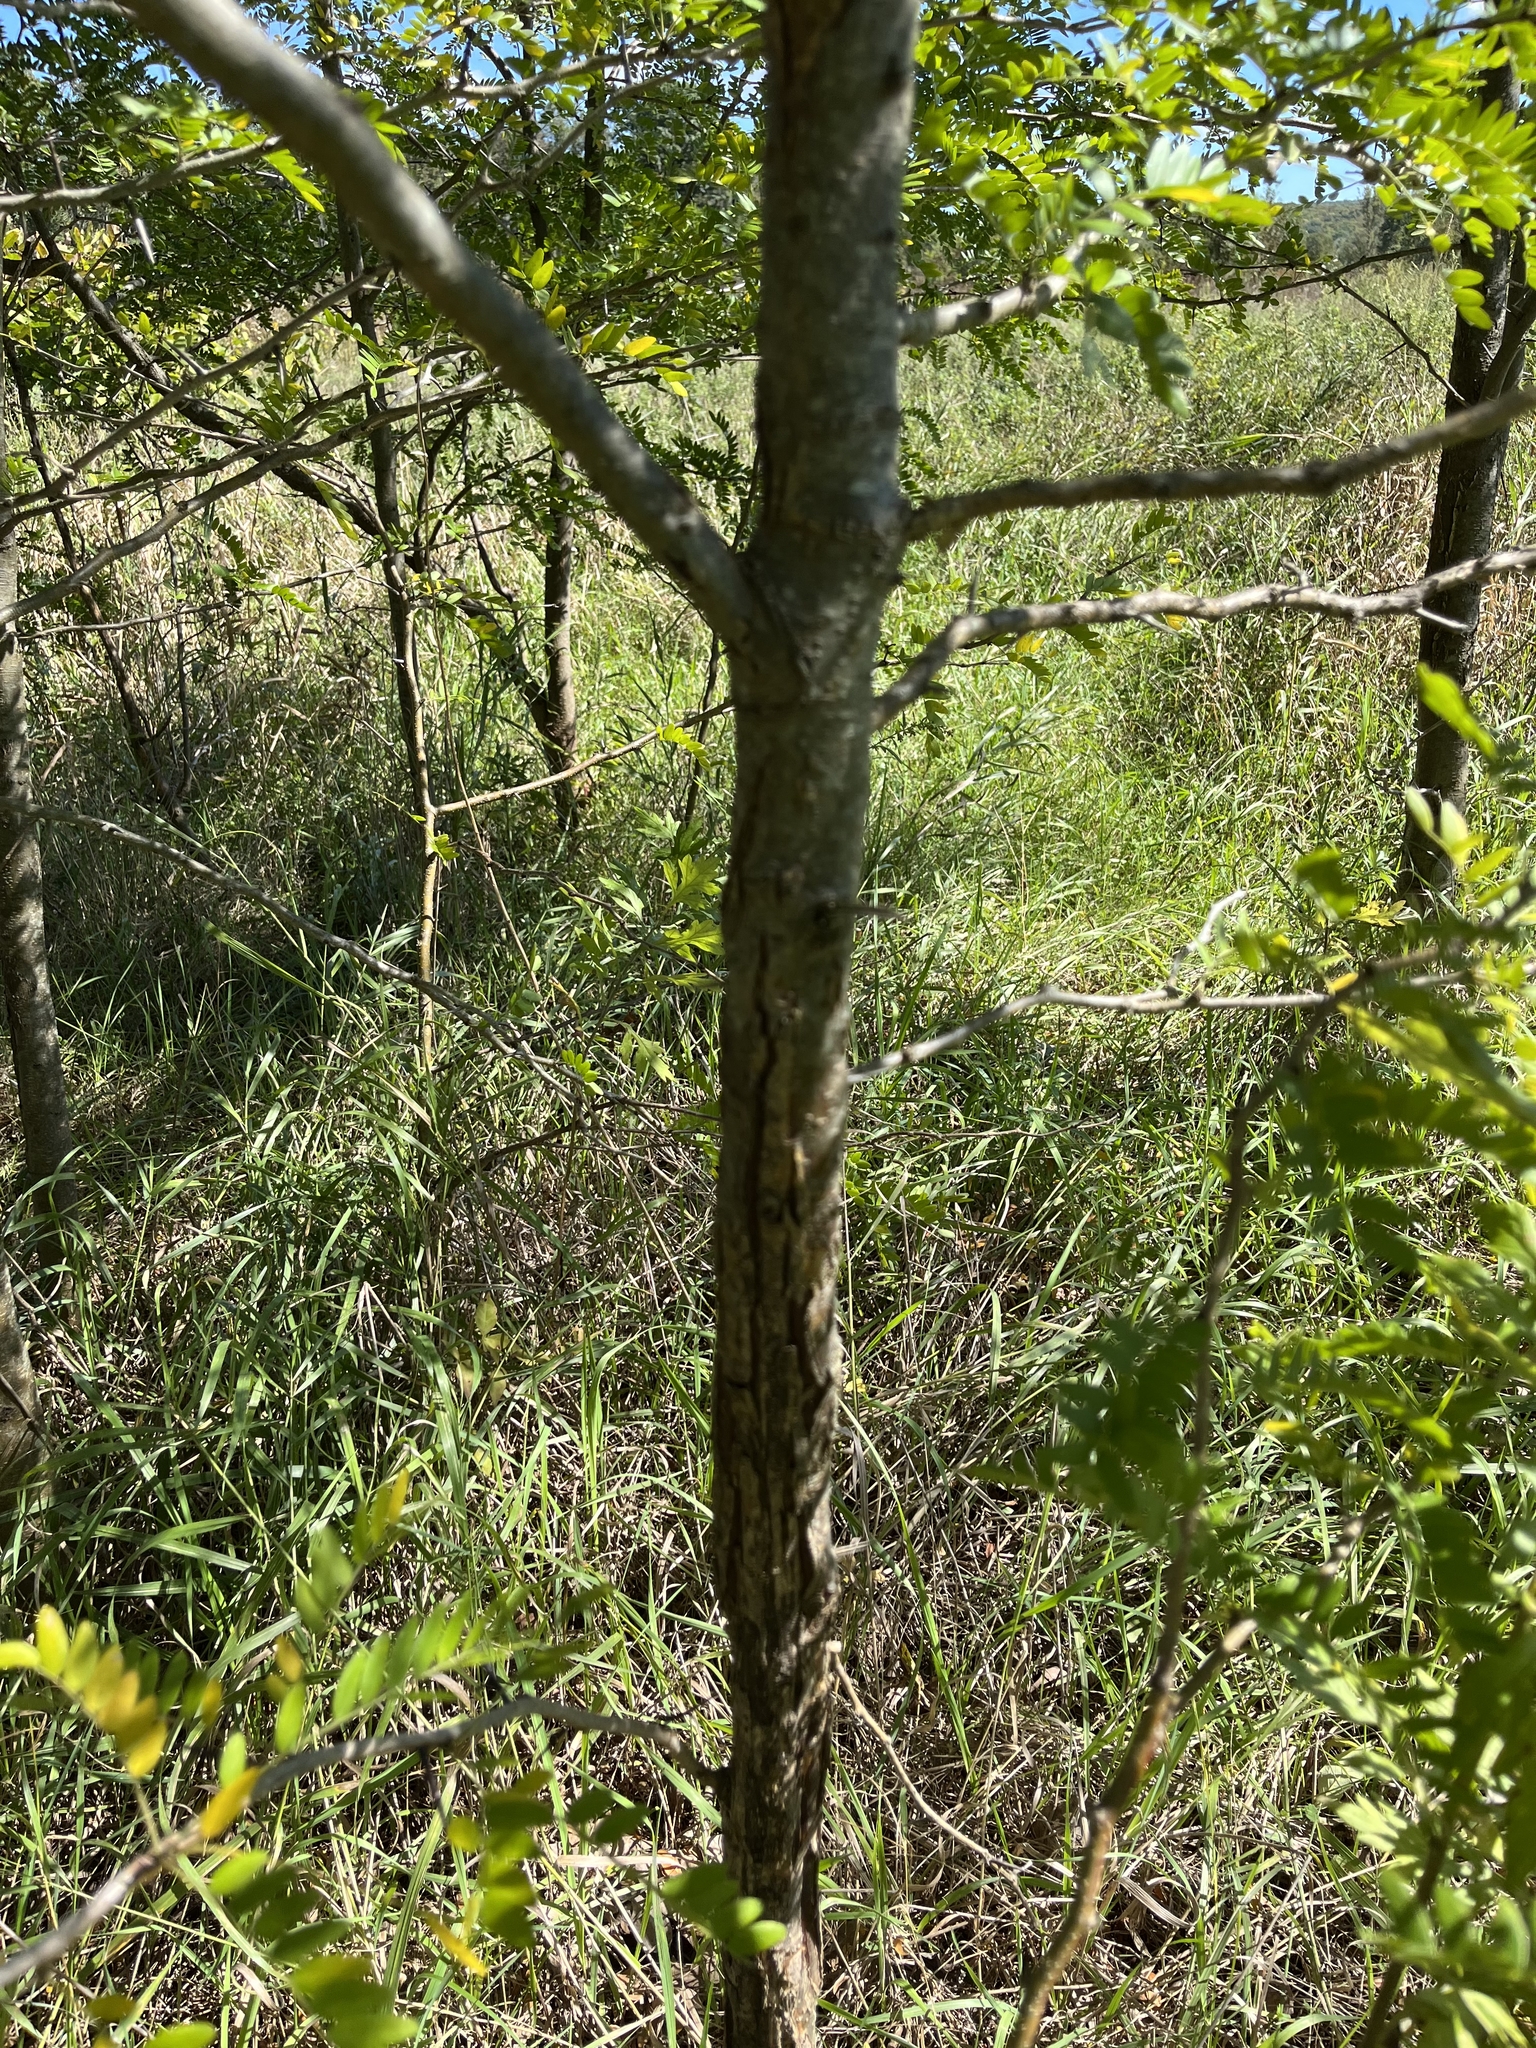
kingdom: Plantae
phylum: Tracheophyta
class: Magnoliopsida
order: Fabales
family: Fabaceae
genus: Gleditsia
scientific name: Gleditsia triacanthos
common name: Common honeylocust
